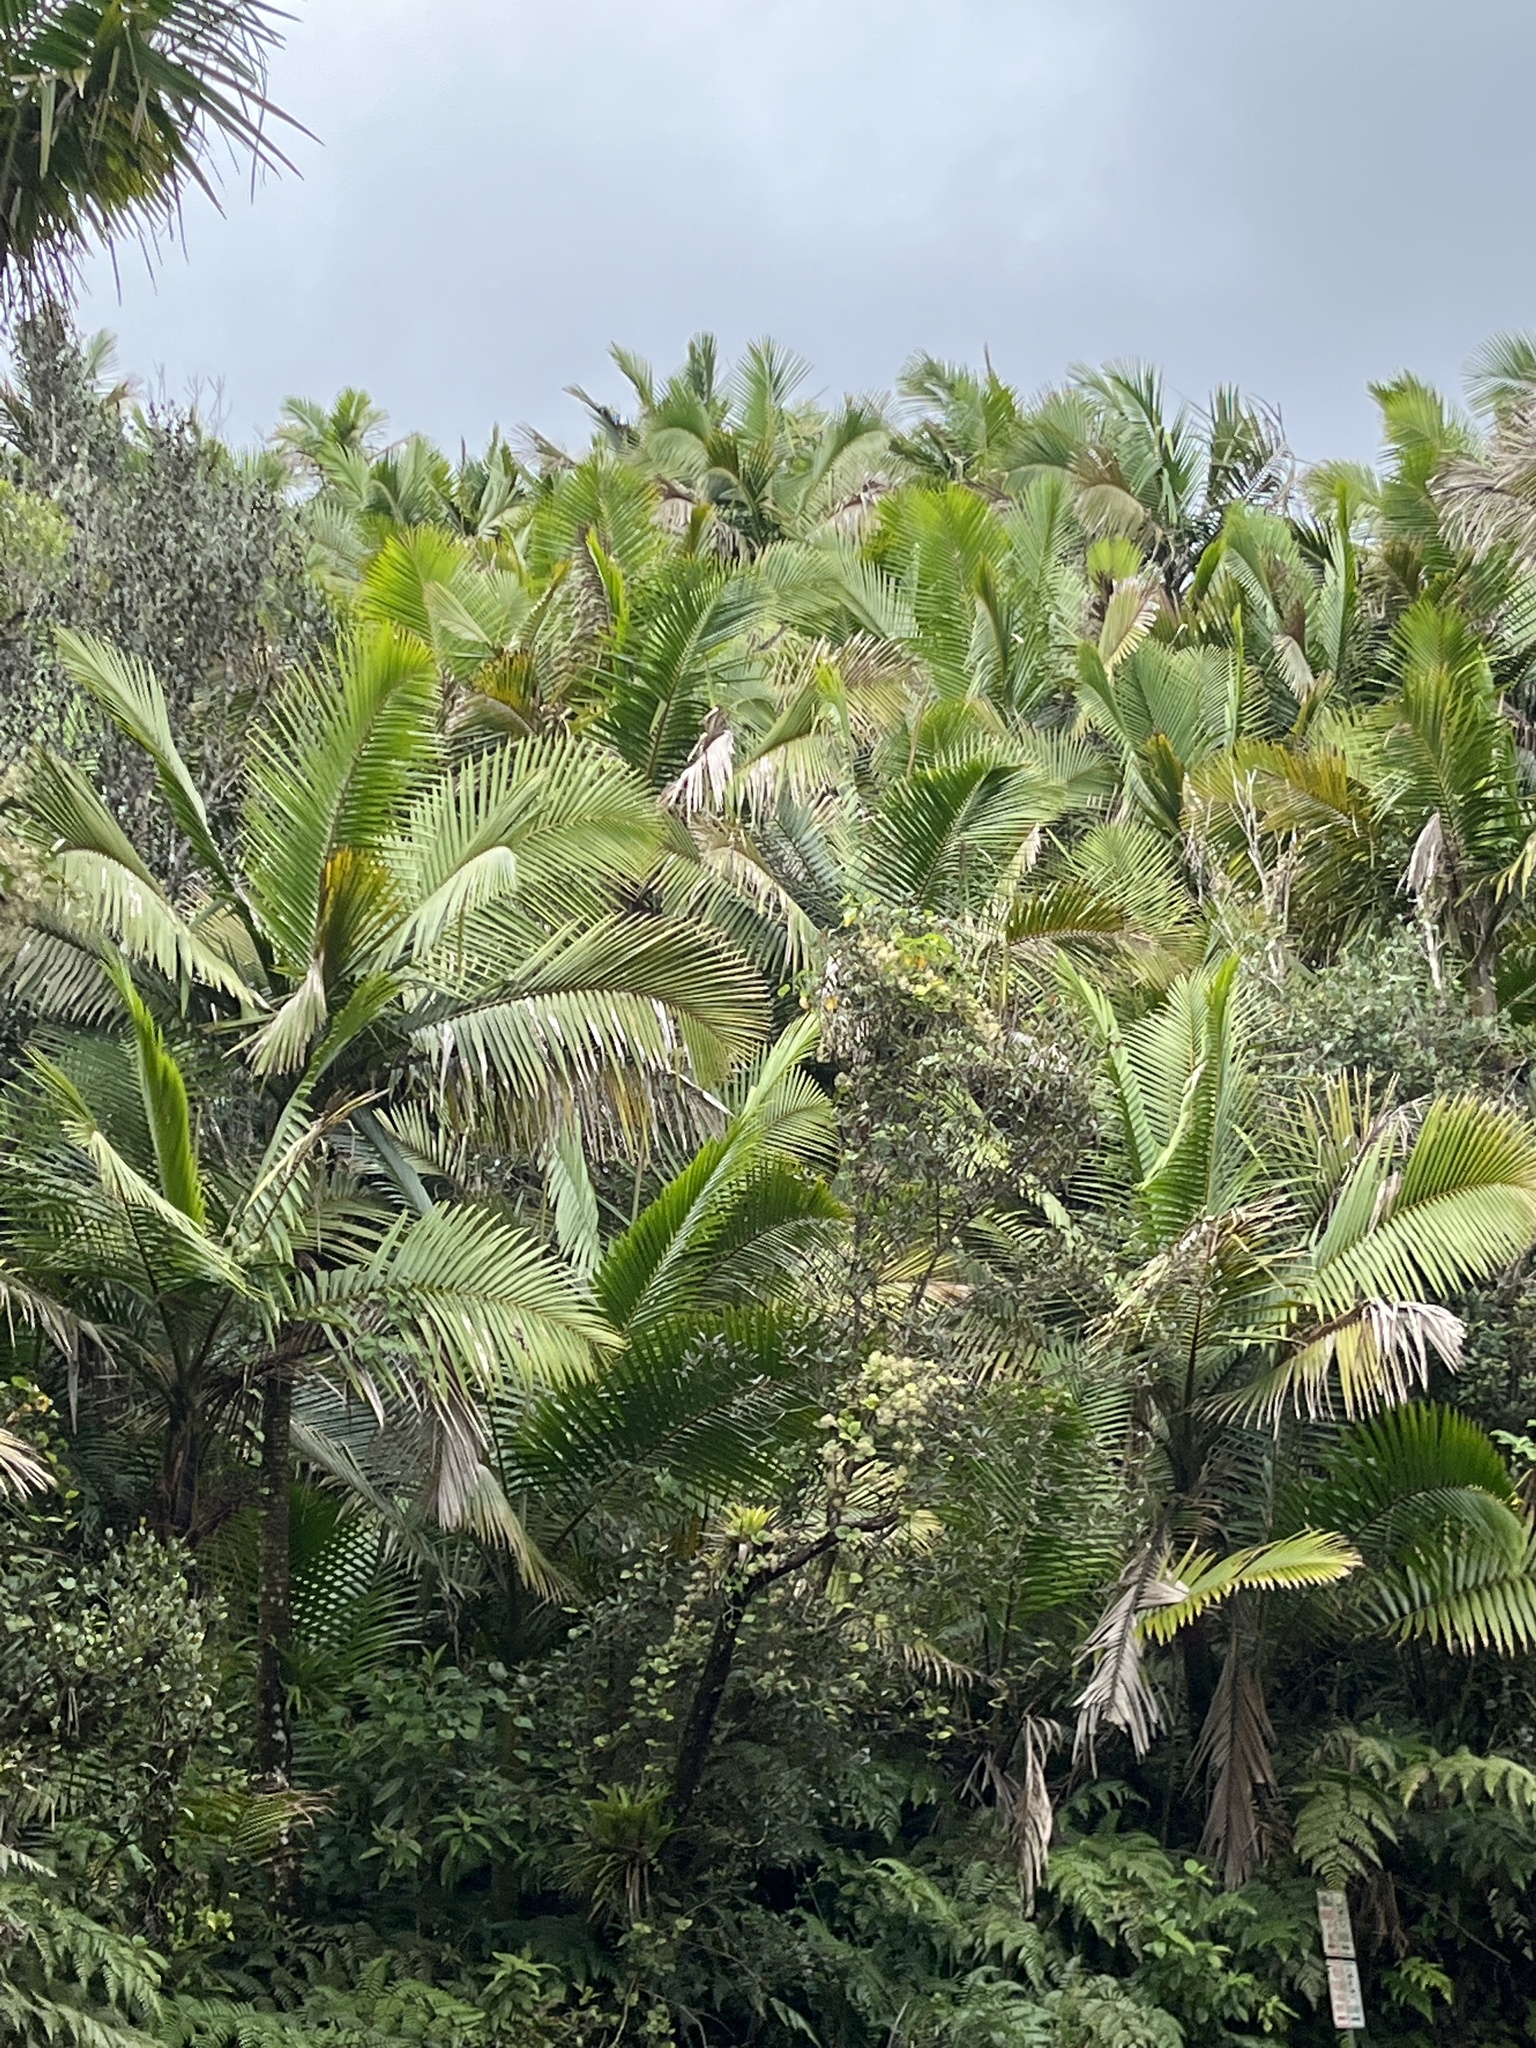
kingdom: Plantae
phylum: Tracheophyta
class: Liliopsida
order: Arecales
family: Arecaceae
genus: Prestoea
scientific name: Prestoea acuminata
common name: Sierran palm
